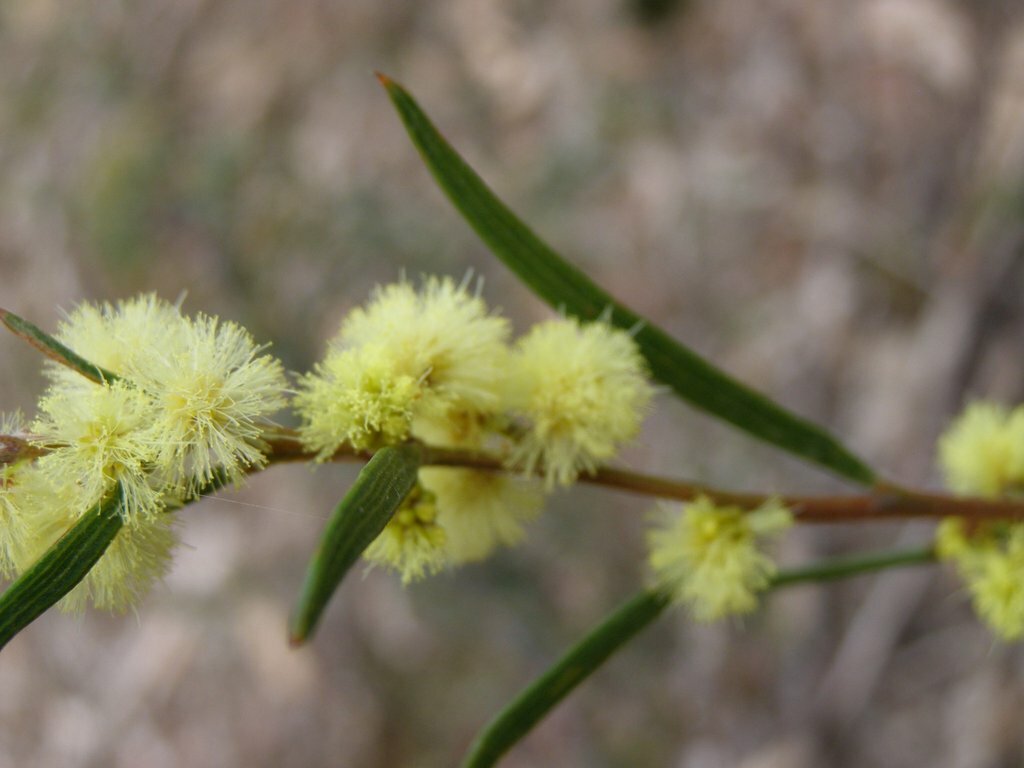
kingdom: Plantae
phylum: Tracheophyta
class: Magnoliopsida
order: Fabales
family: Fabaceae
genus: Acacia
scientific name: Acacia lanigera
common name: Hairy wattle
